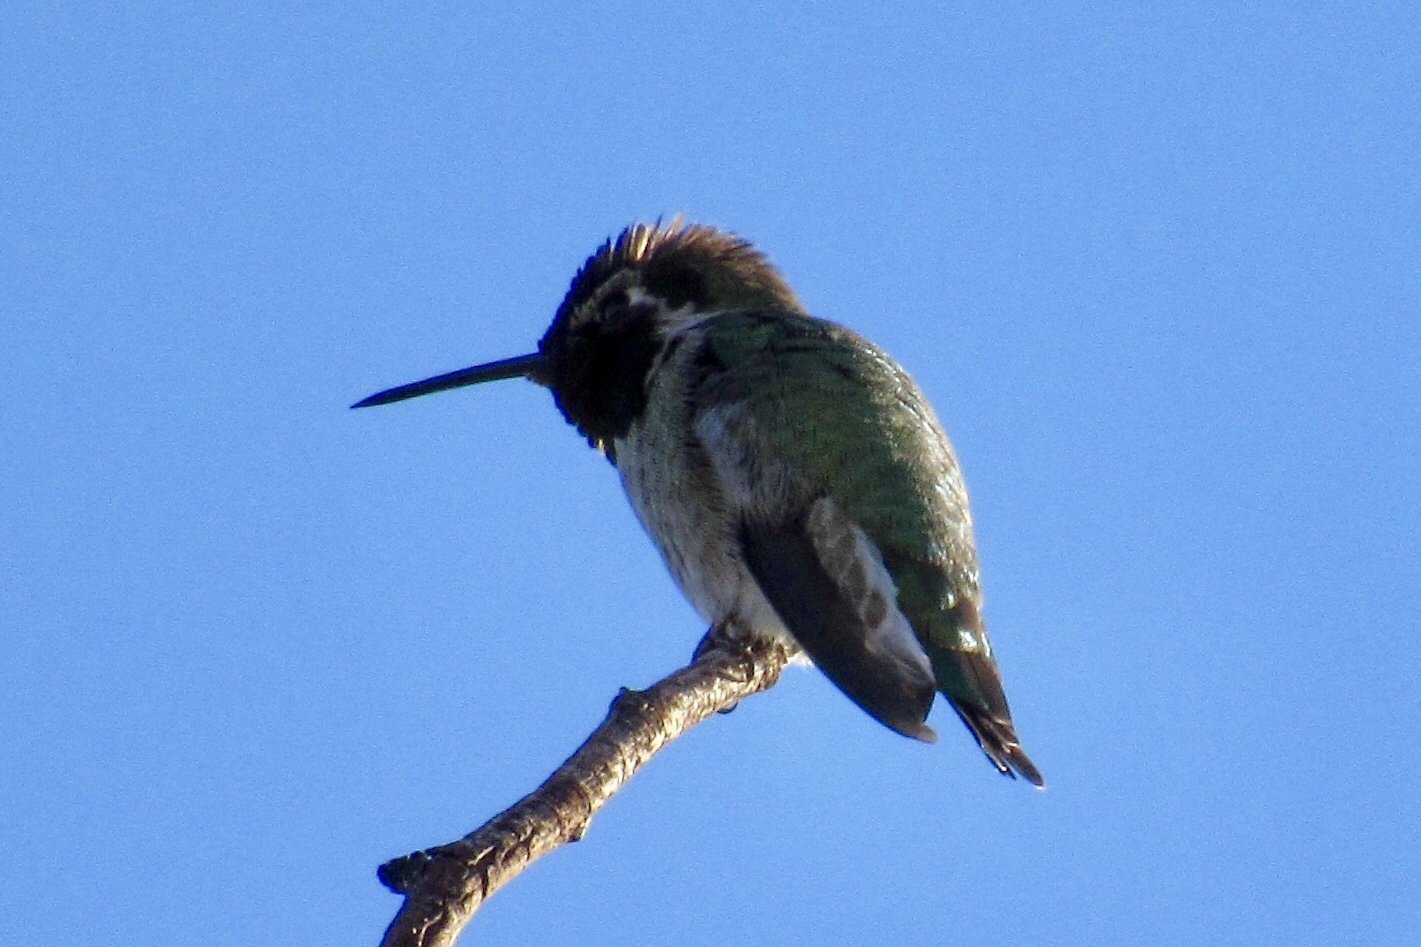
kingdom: Animalia
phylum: Chordata
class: Aves
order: Apodiformes
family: Trochilidae
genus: Calypte
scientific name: Calypte anna
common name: Anna's hummingbird
